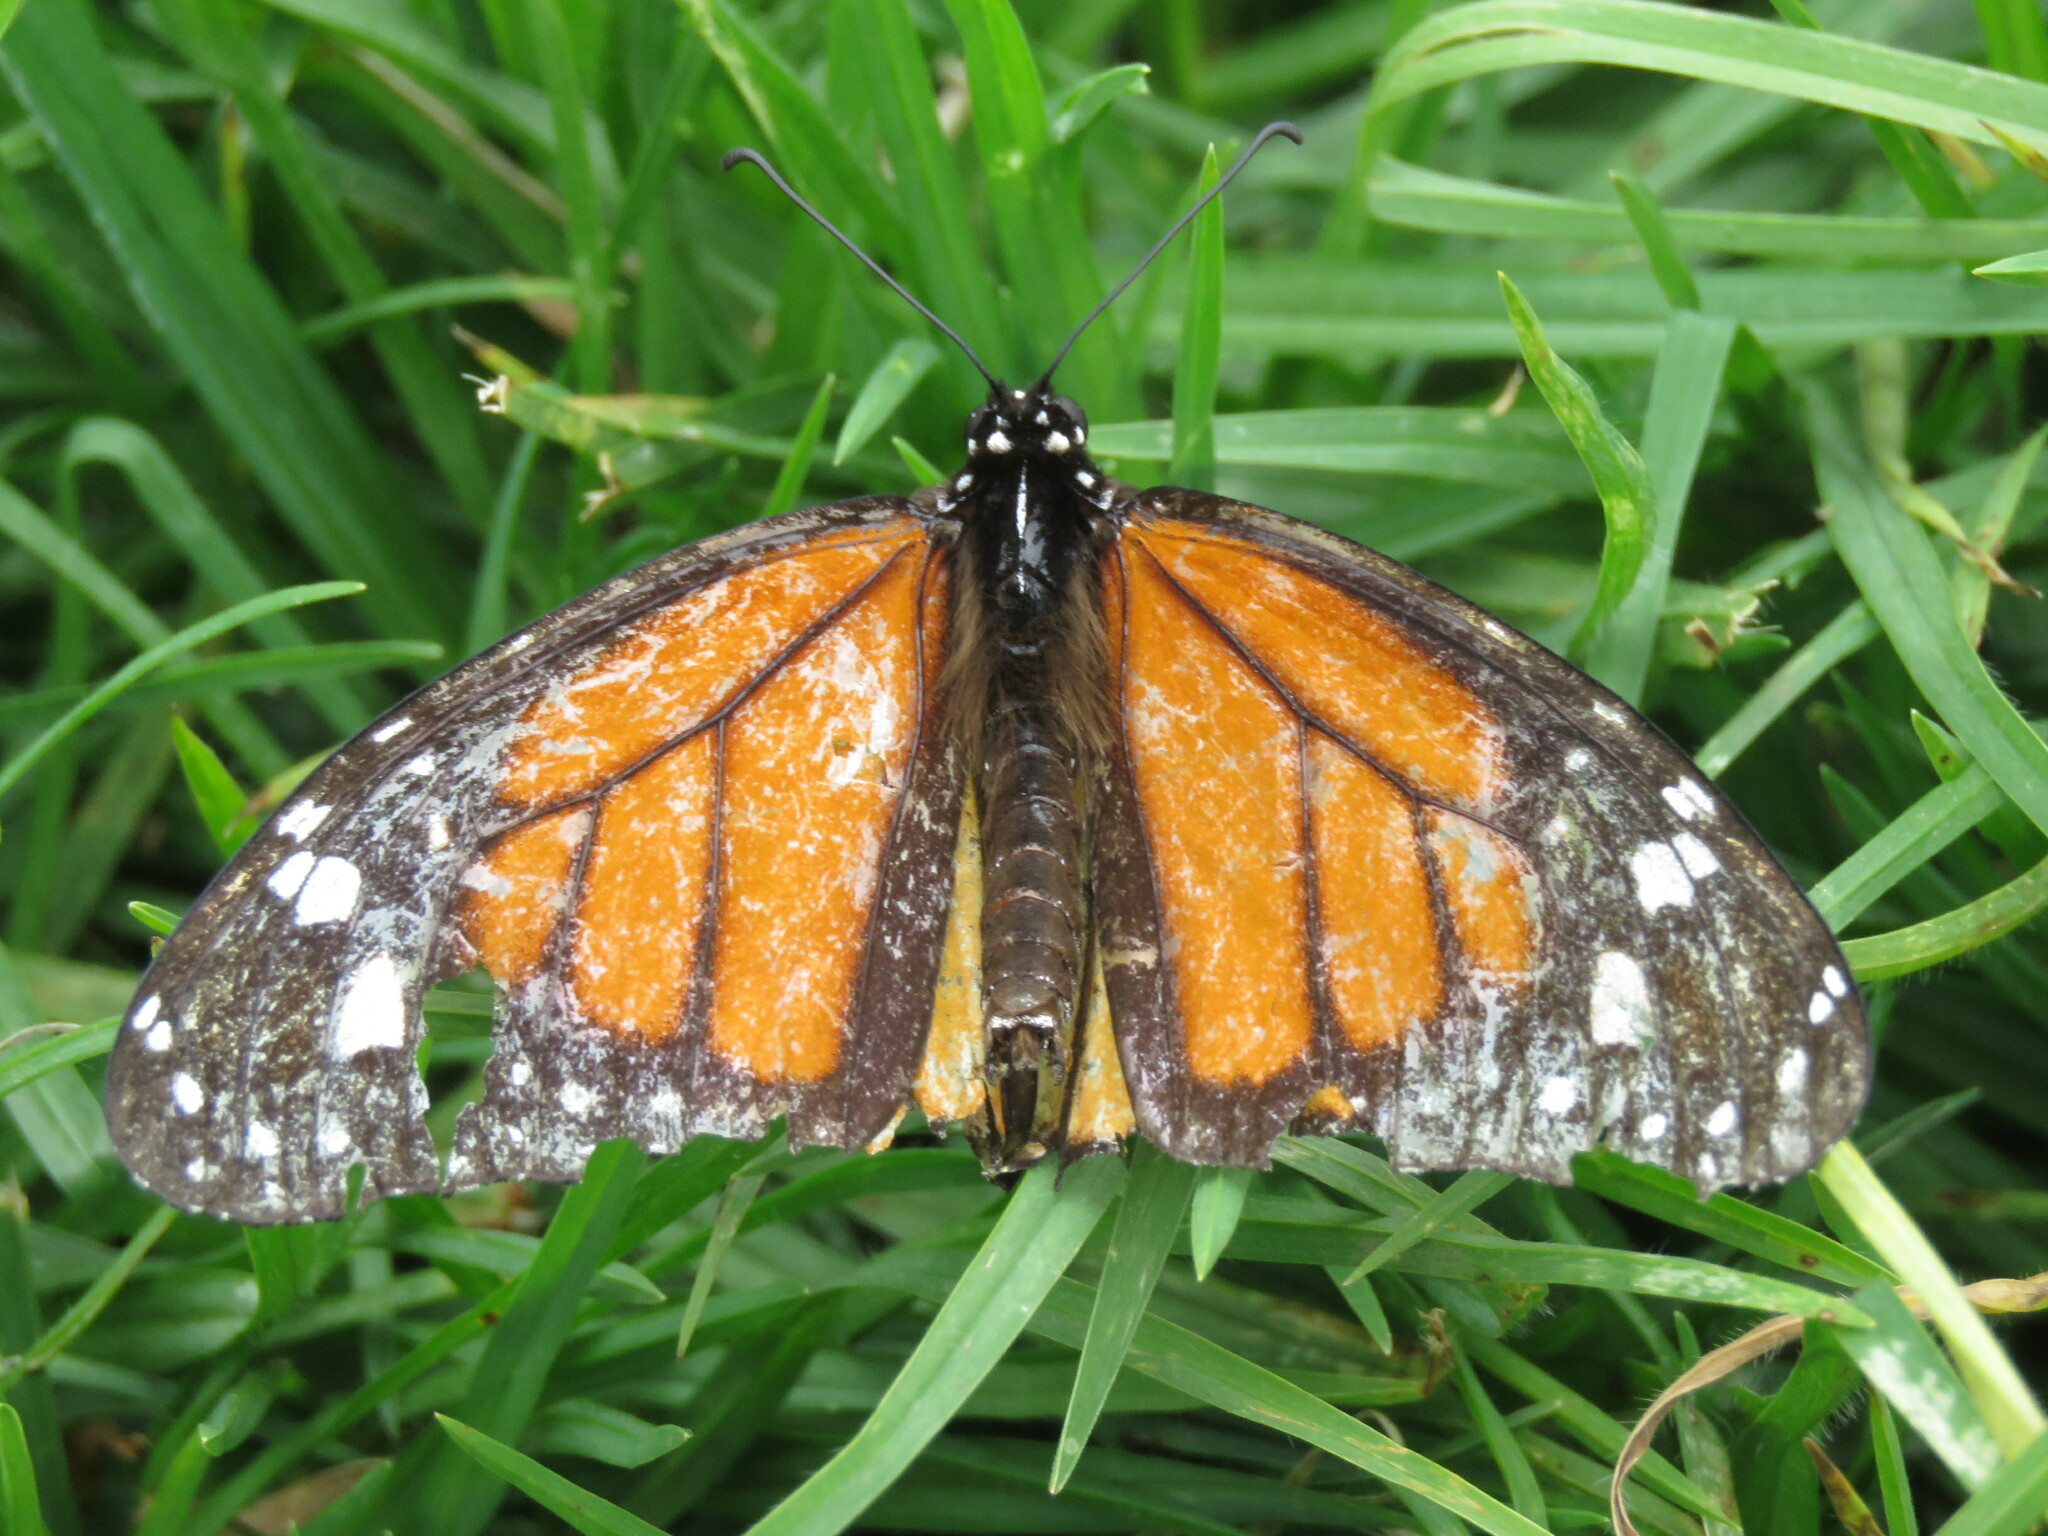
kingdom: Animalia
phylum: Arthropoda
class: Insecta
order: Lepidoptera
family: Nymphalidae
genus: Danaus
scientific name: Danaus plexippus
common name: Monarch
